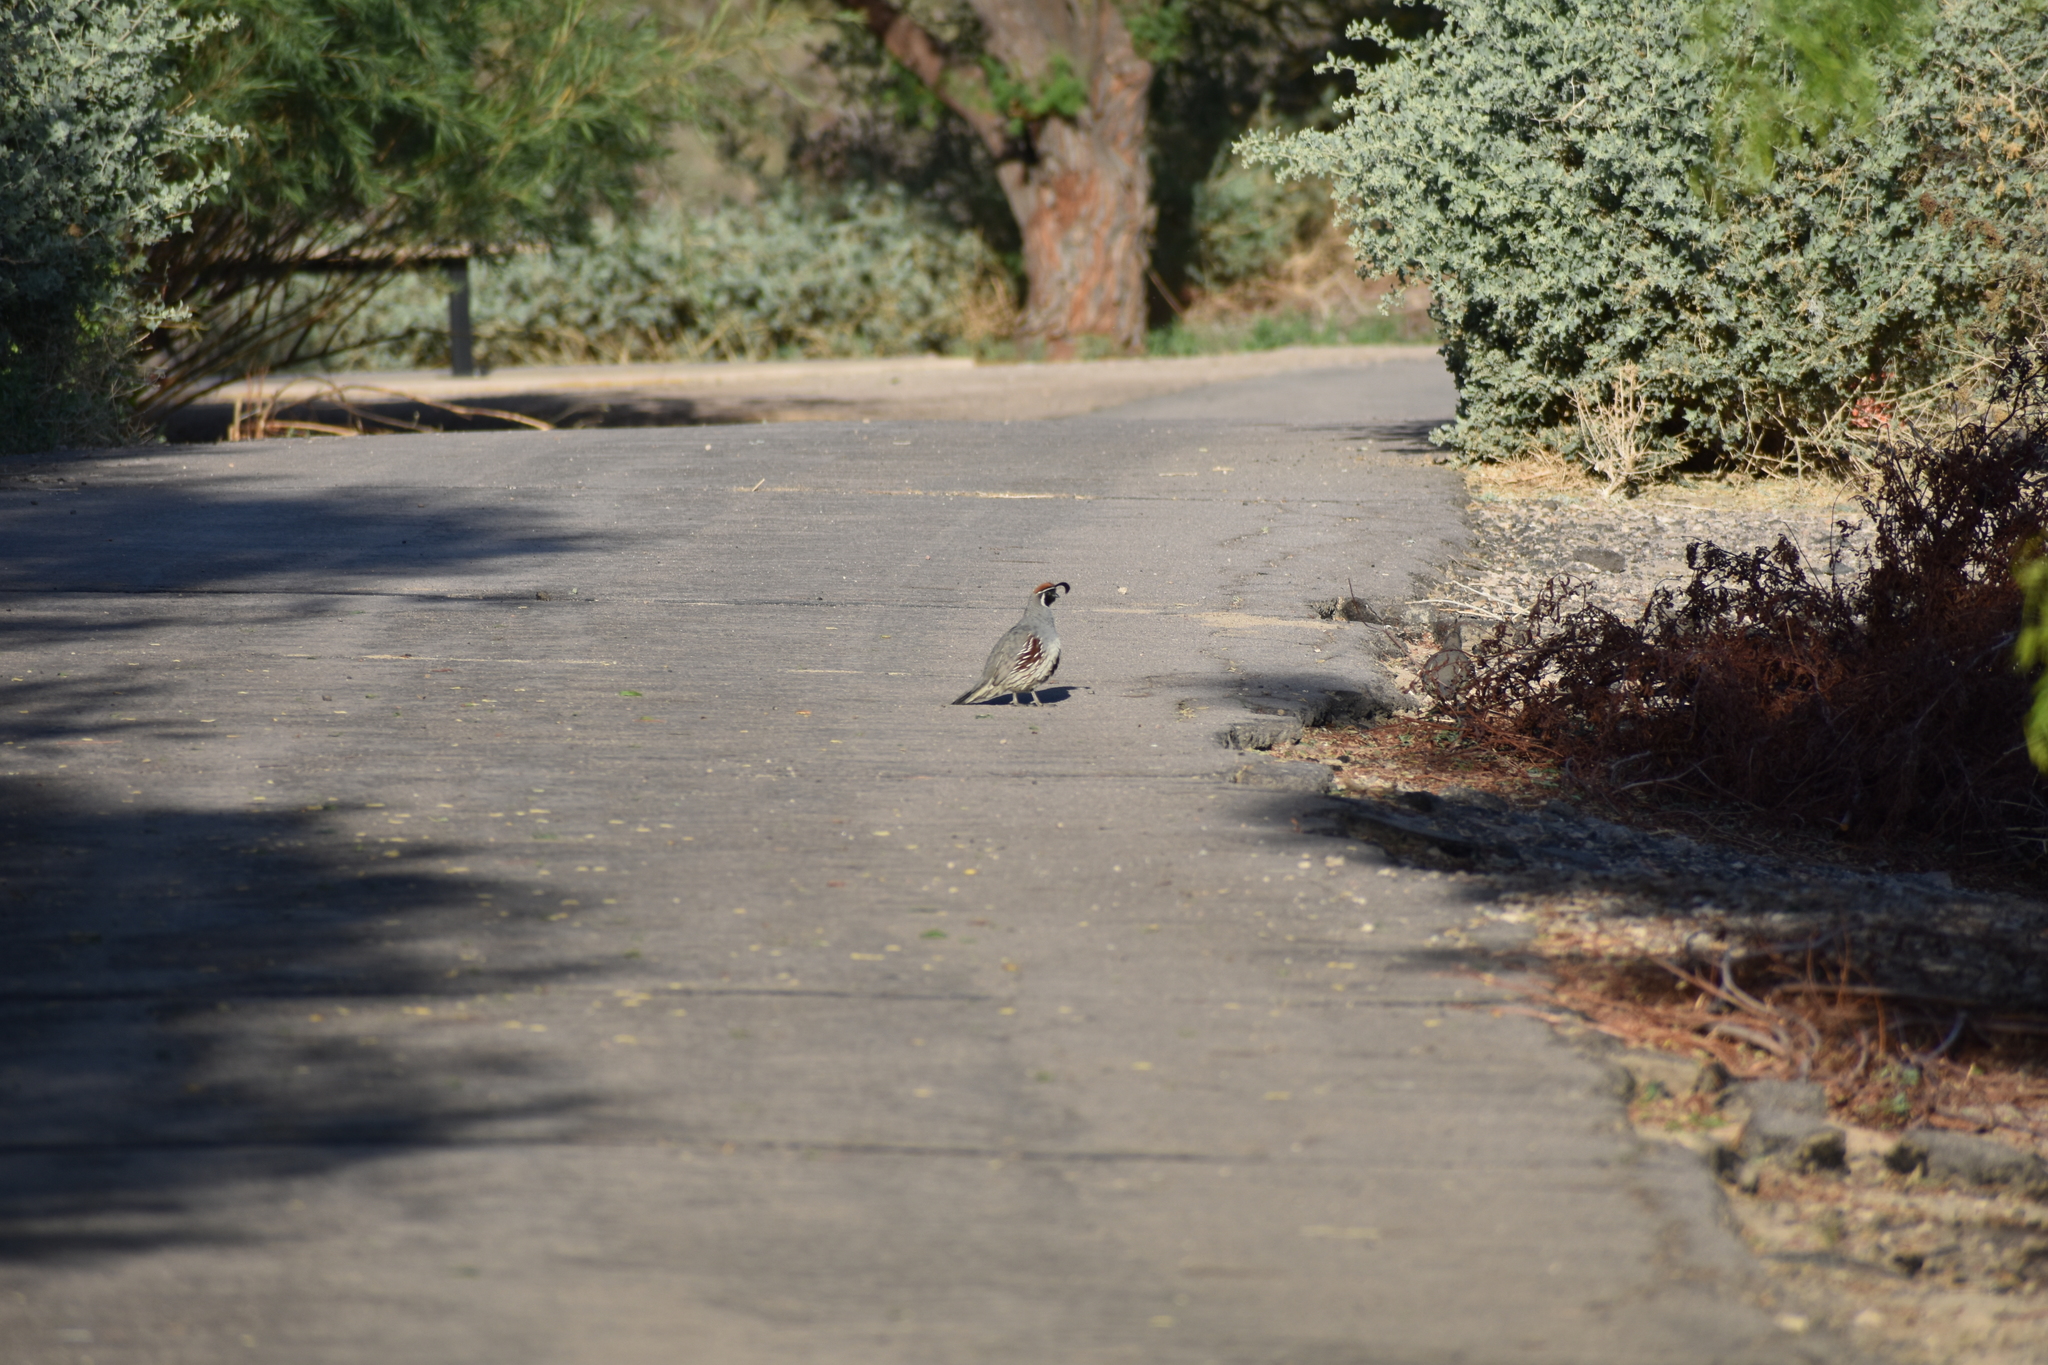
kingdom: Animalia
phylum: Chordata
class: Aves
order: Galliformes
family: Odontophoridae
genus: Callipepla
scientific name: Callipepla gambelii
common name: Gambel's quail
